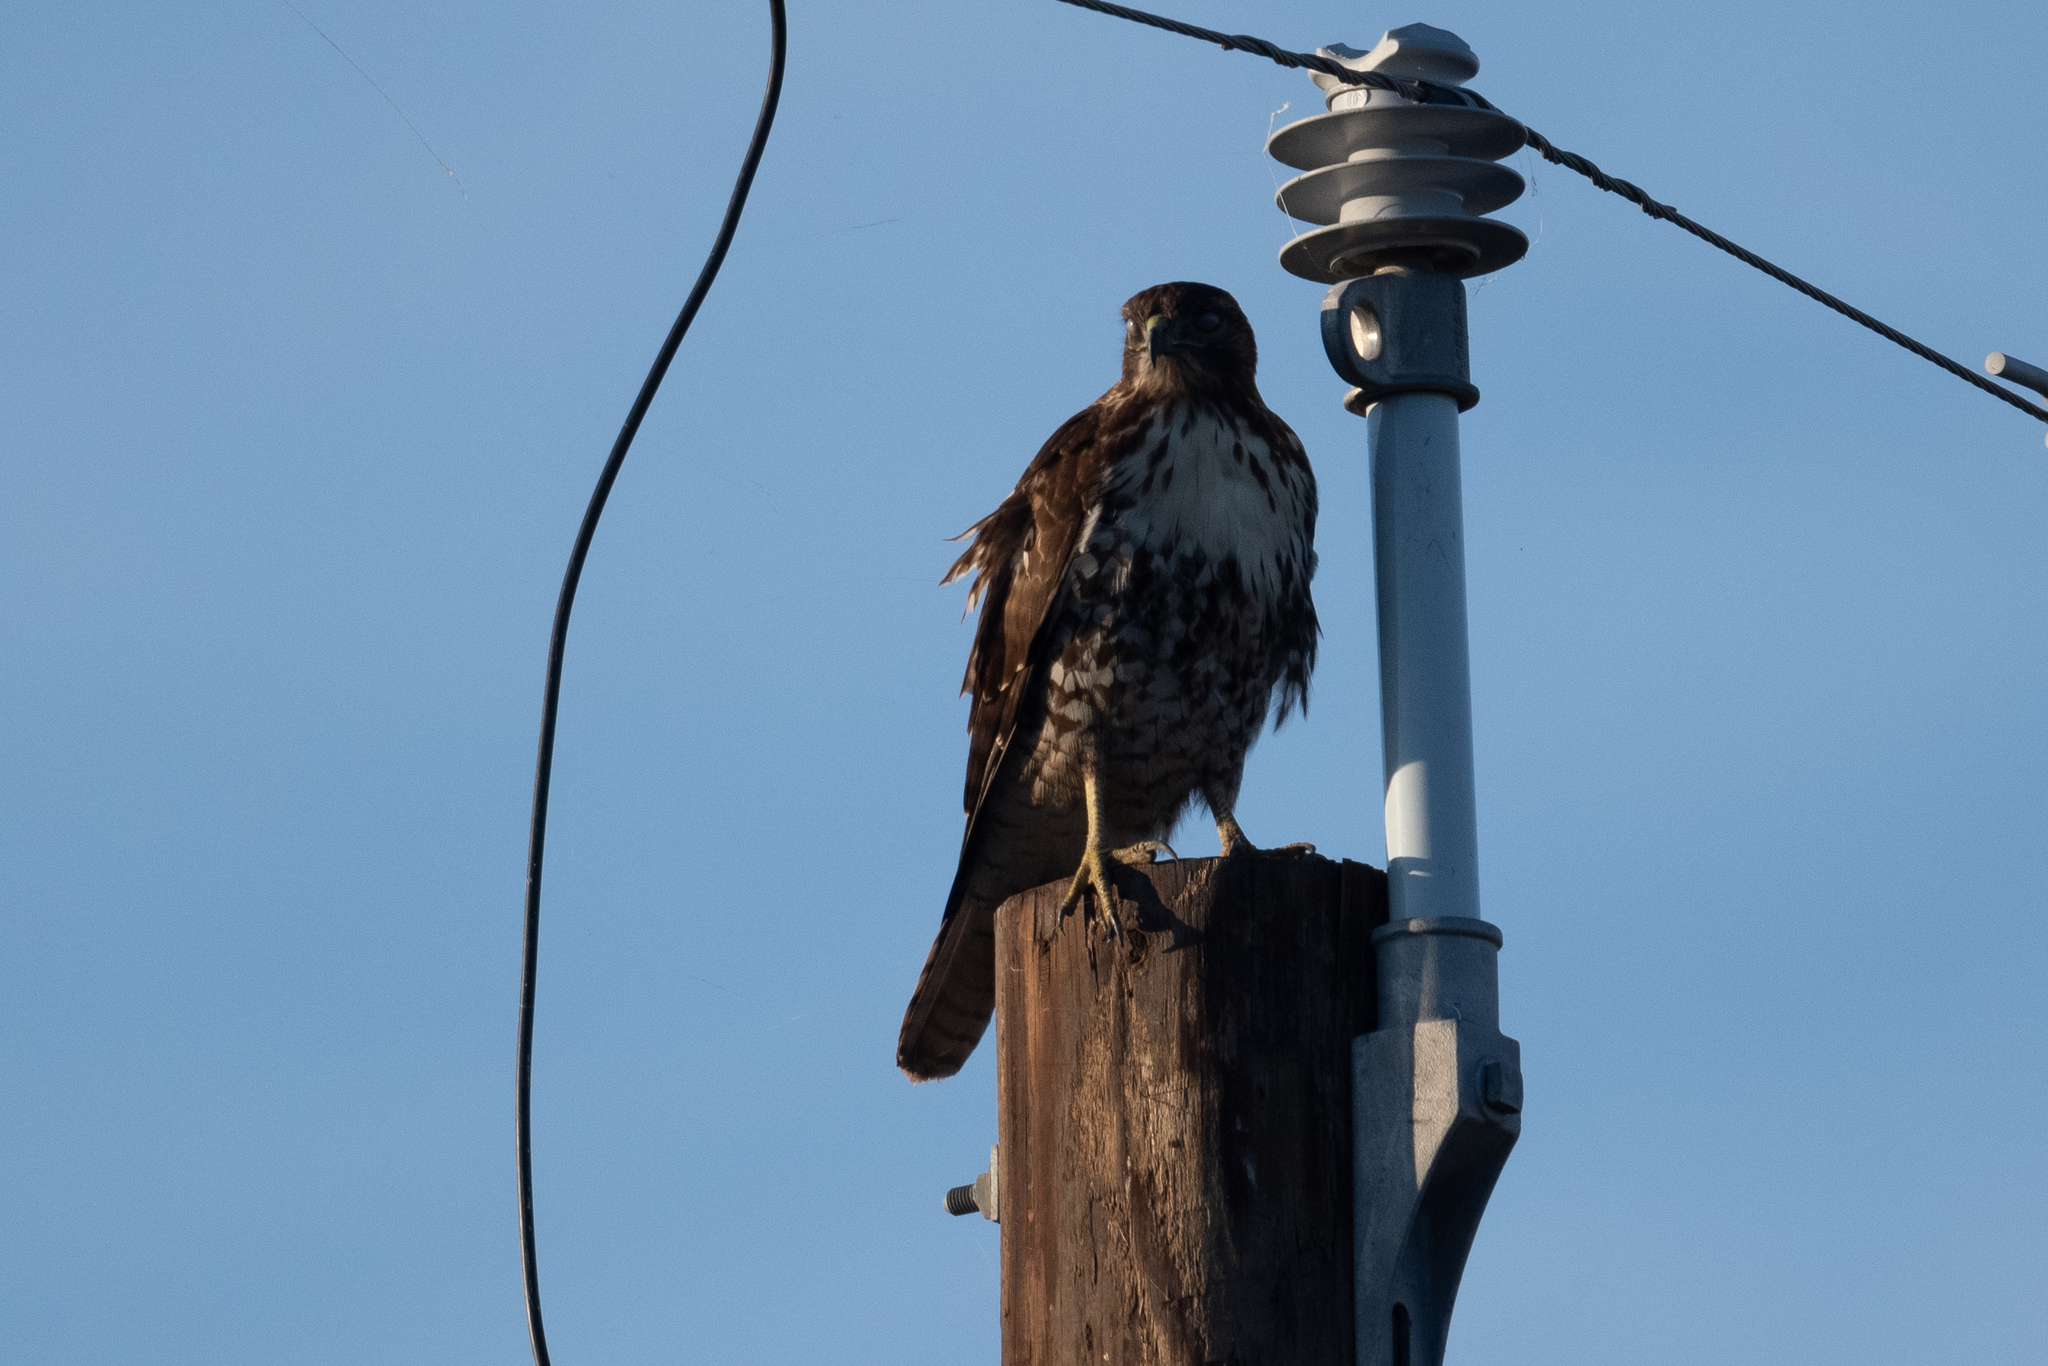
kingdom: Animalia
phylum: Chordata
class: Aves
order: Accipitriformes
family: Accipitridae
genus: Buteo
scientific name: Buteo jamaicensis
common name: Red-tailed hawk
